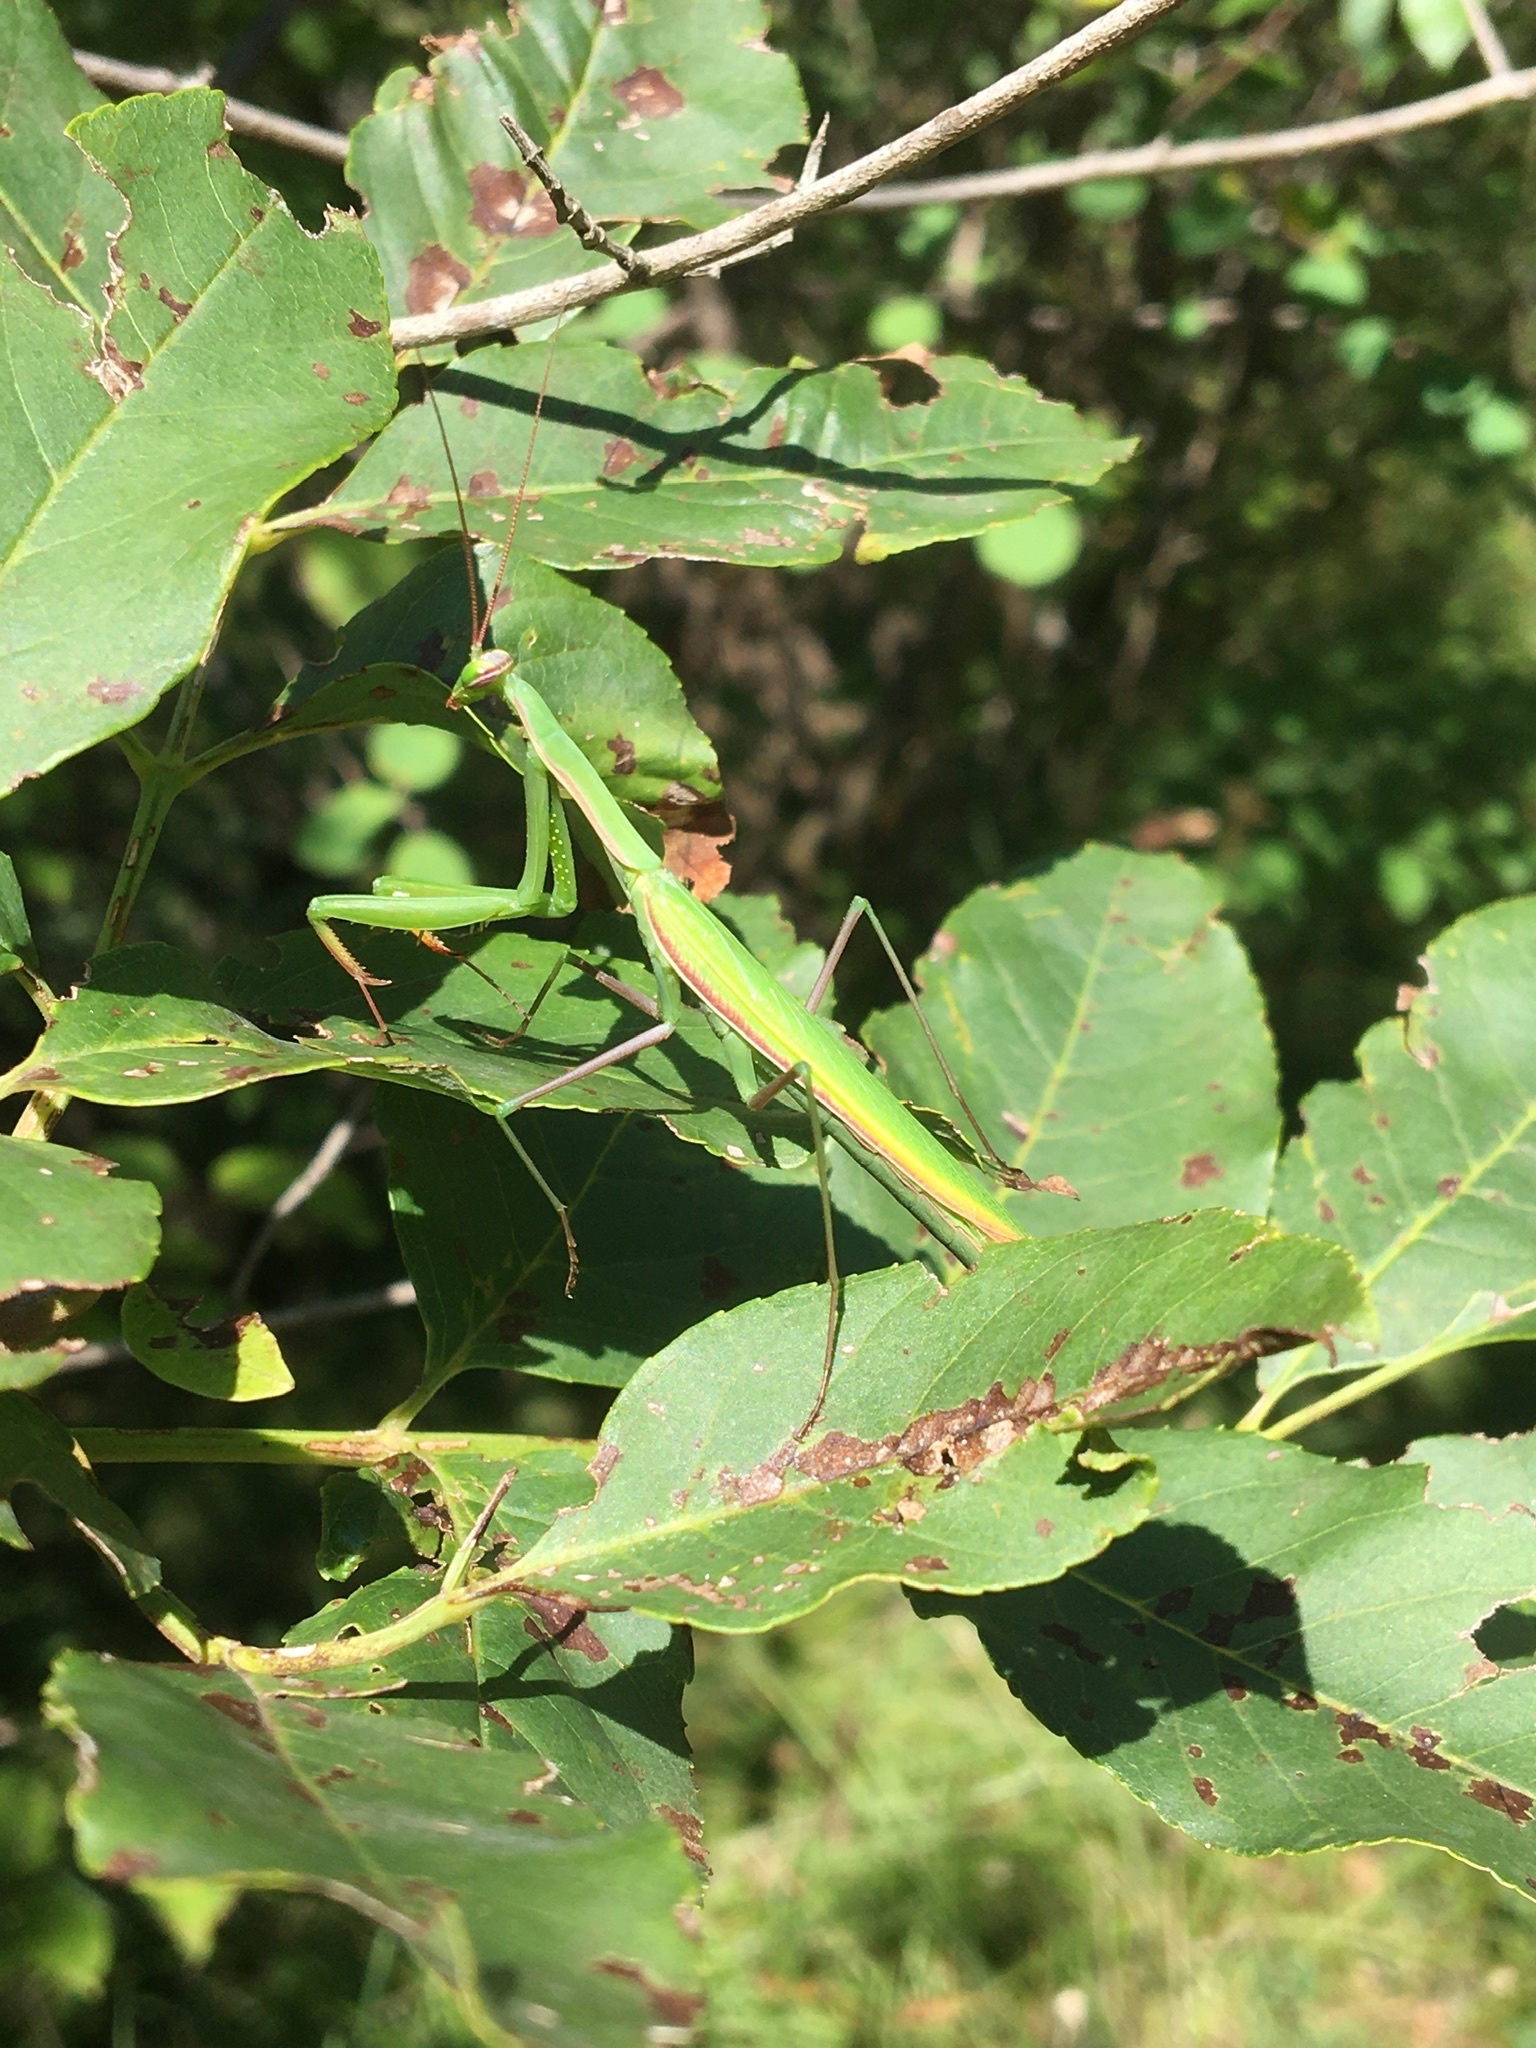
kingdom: Animalia
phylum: Arthropoda
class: Insecta
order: Mantodea
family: Mantidae
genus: Mantis
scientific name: Mantis religiosa
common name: Praying mantis
